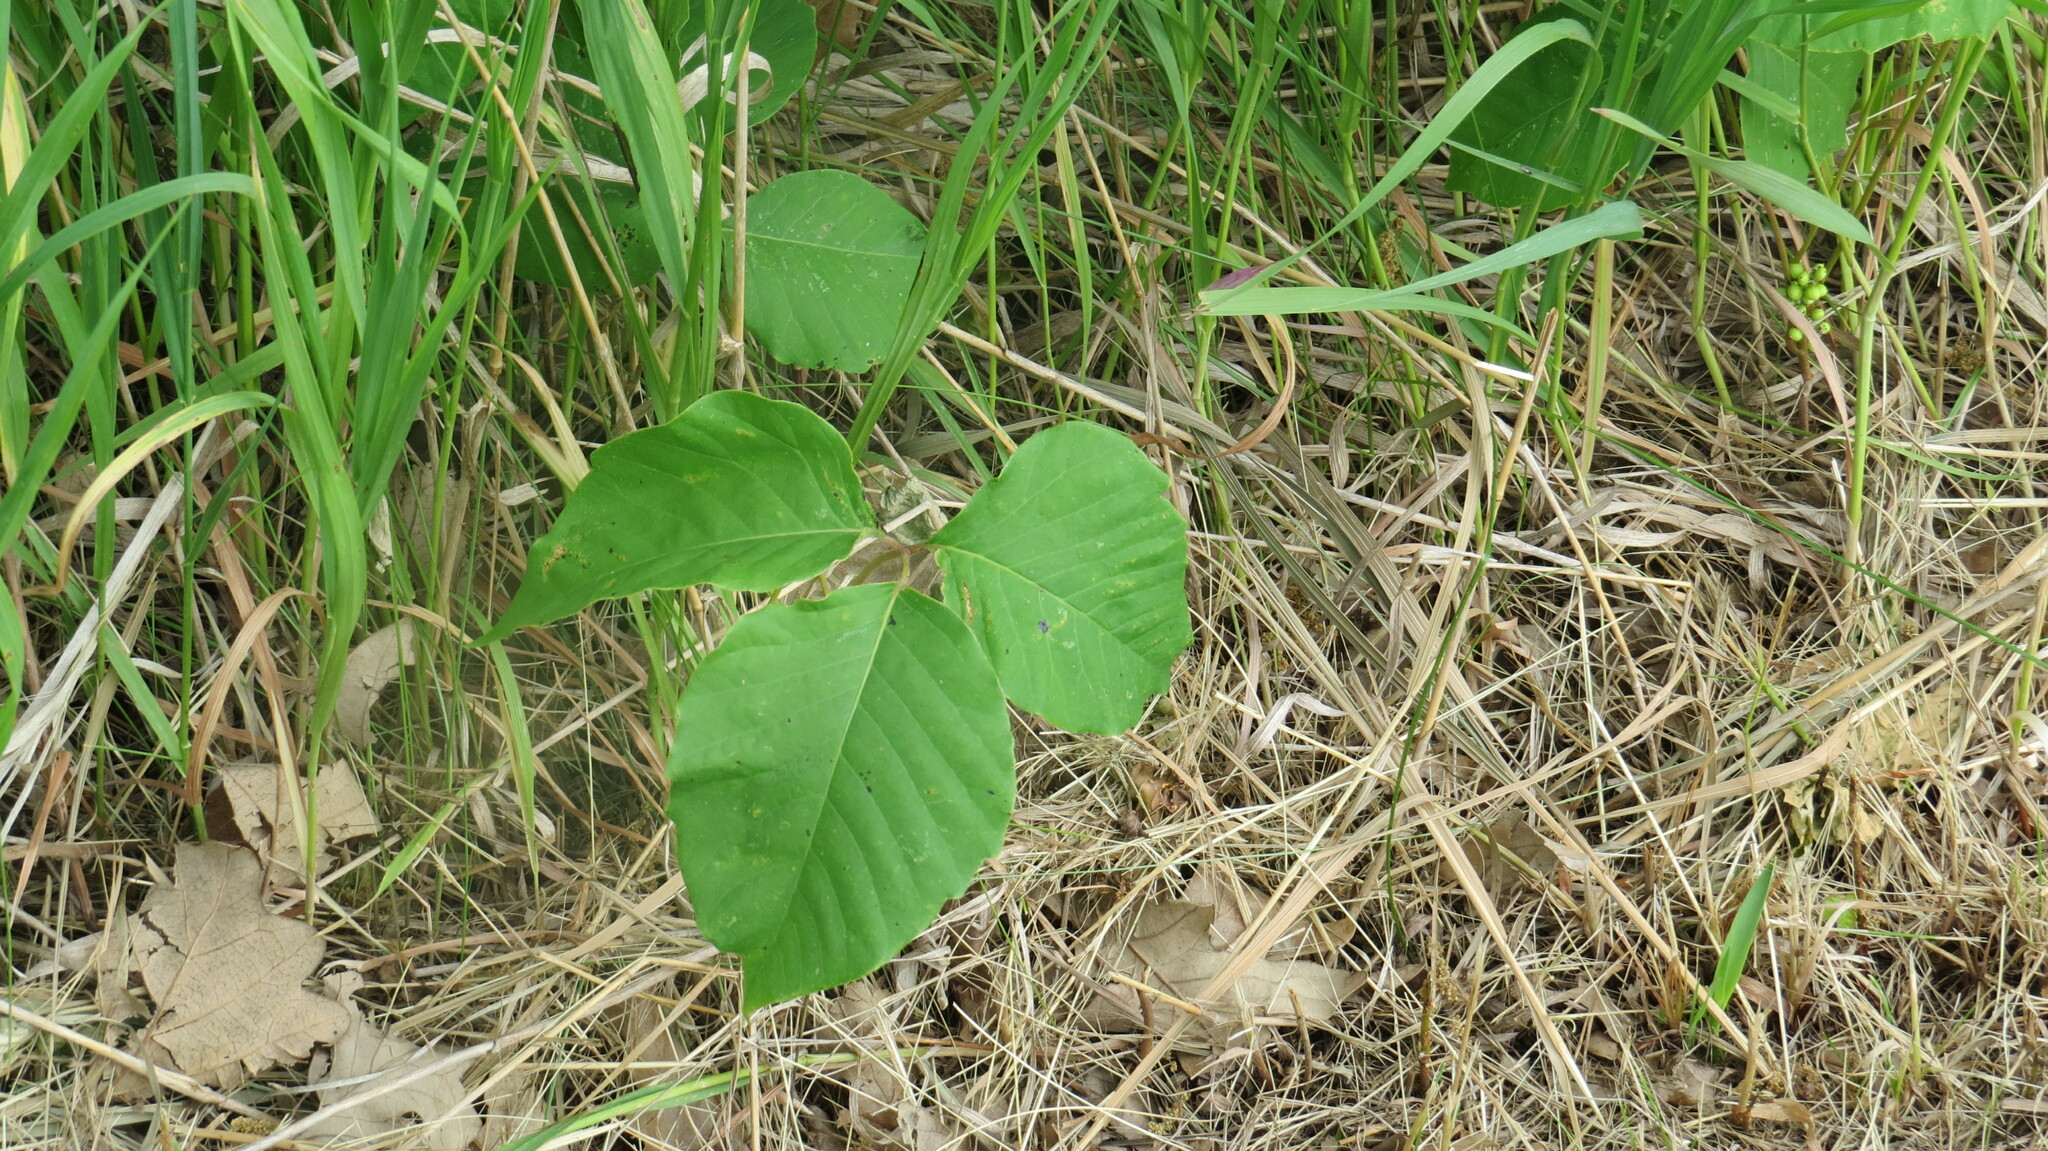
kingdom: Plantae
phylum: Tracheophyta
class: Magnoliopsida
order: Sapindales
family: Anacardiaceae
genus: Toxicodendron
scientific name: Toxicodendron rydbergii
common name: Rydberg's poison-ivy
